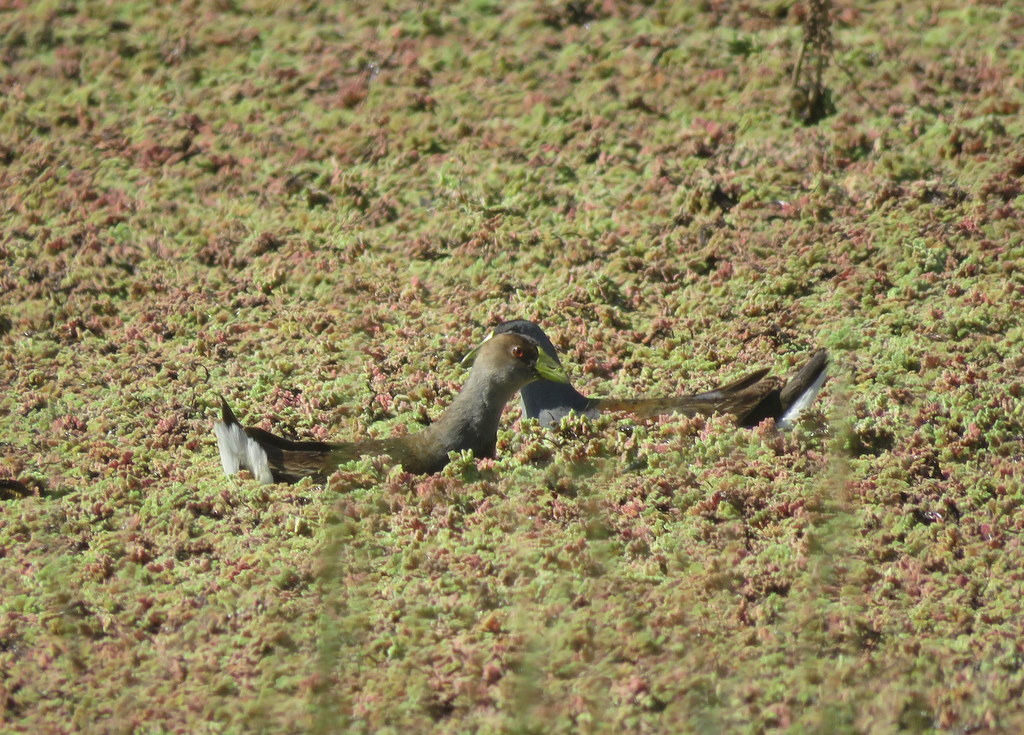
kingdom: Animalia
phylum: Chordata
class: Aves
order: Gruiformes
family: Rallidae
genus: Gallinula
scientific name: Gallinula melanops
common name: Spot-flanked gallinule
